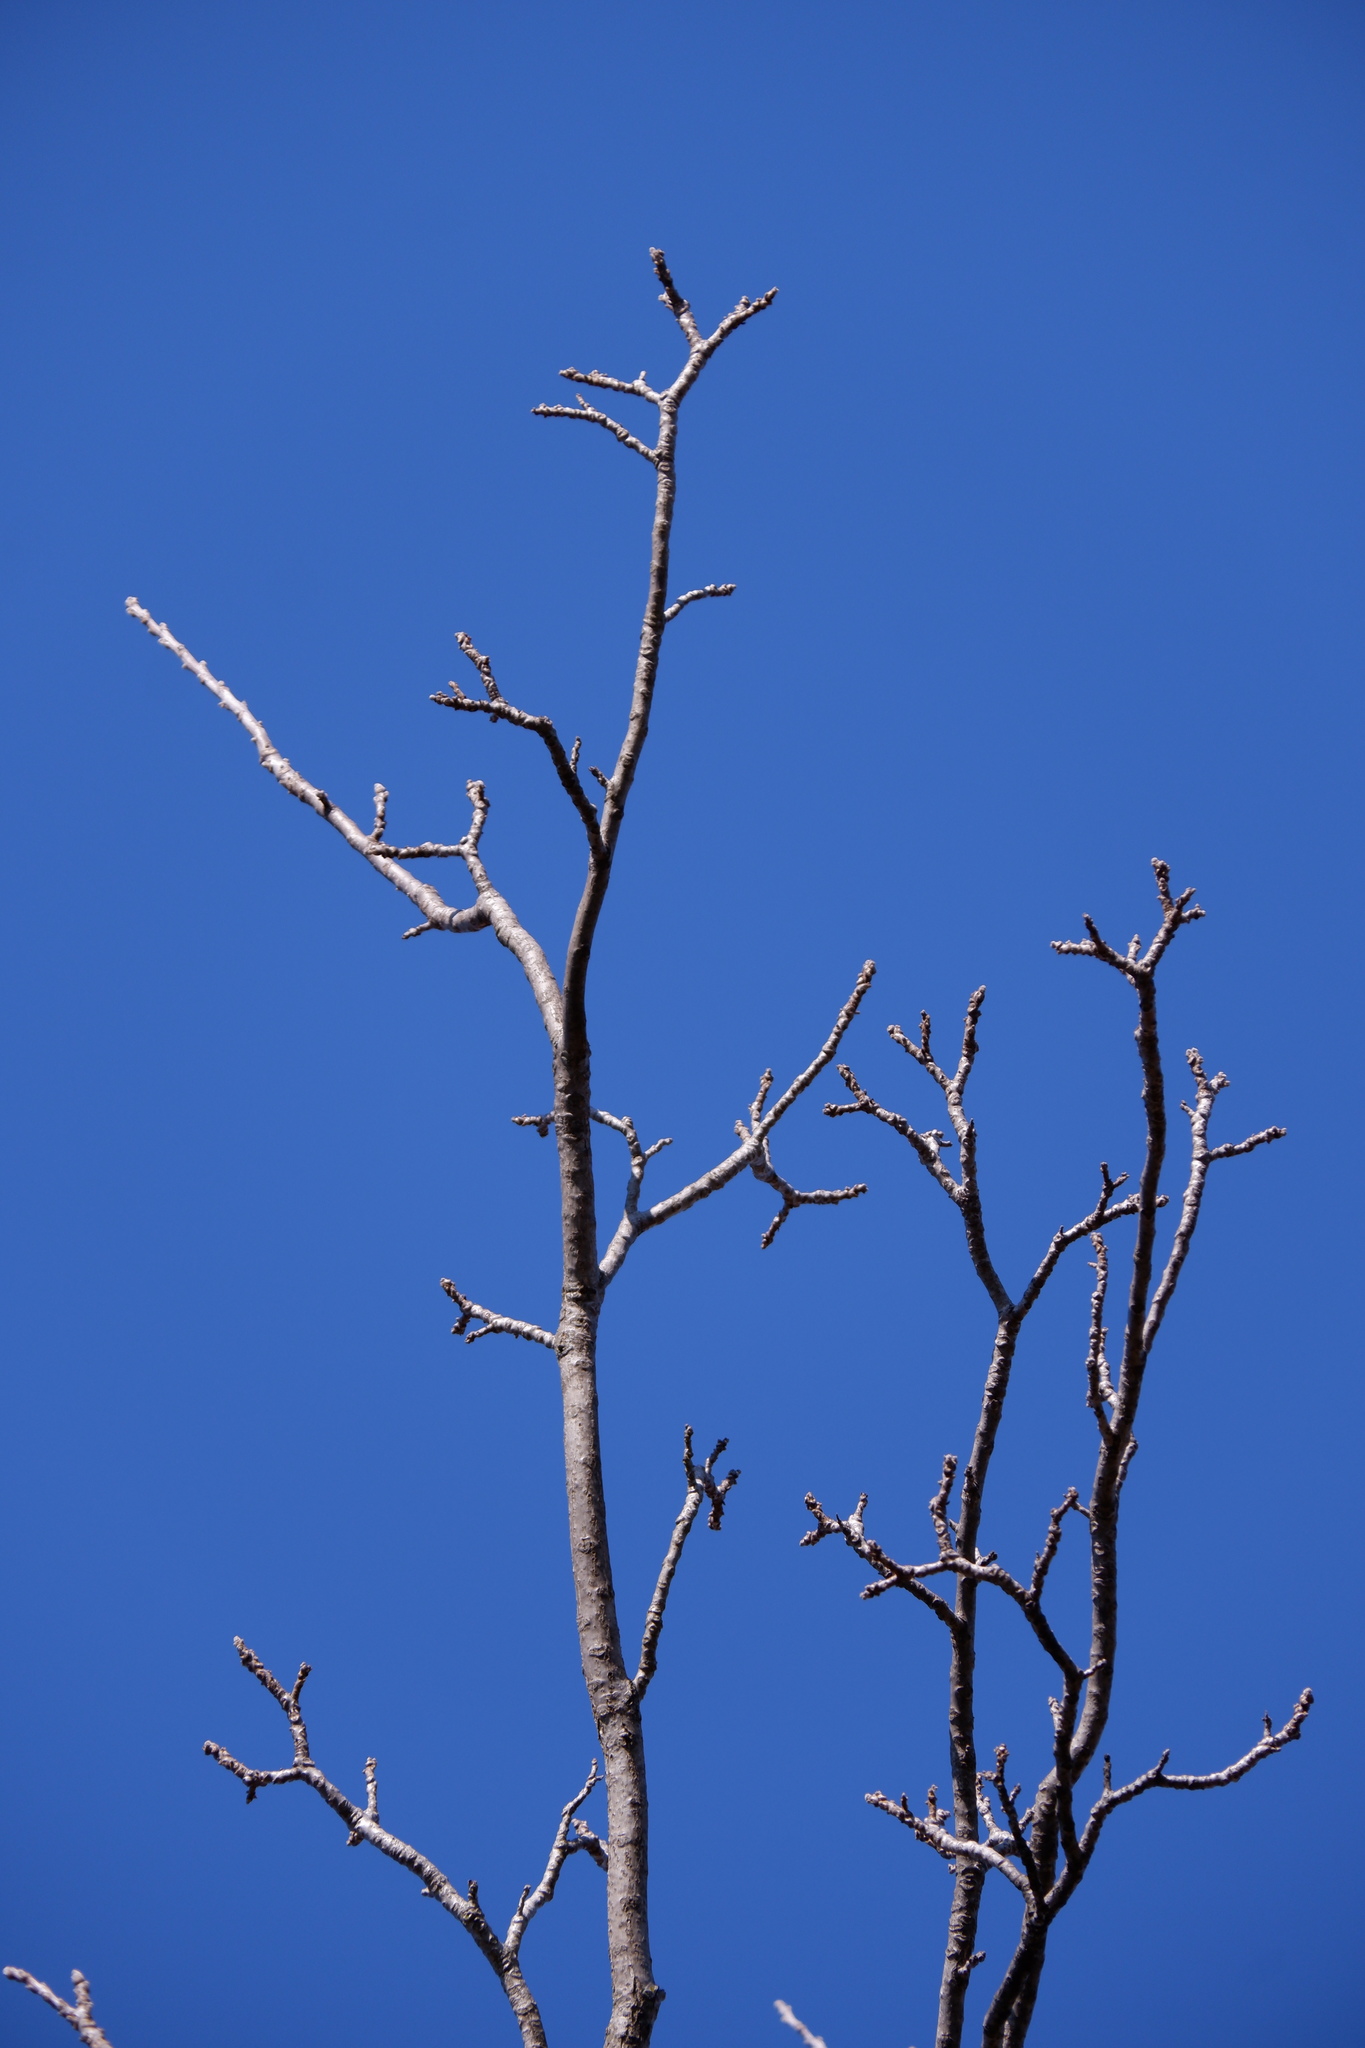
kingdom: Plantae
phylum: Tracheophyta
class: Magnoliopsida
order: Fagales
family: Juglandaceae
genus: Juglans
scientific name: Juglans nigra
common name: Black walnut
